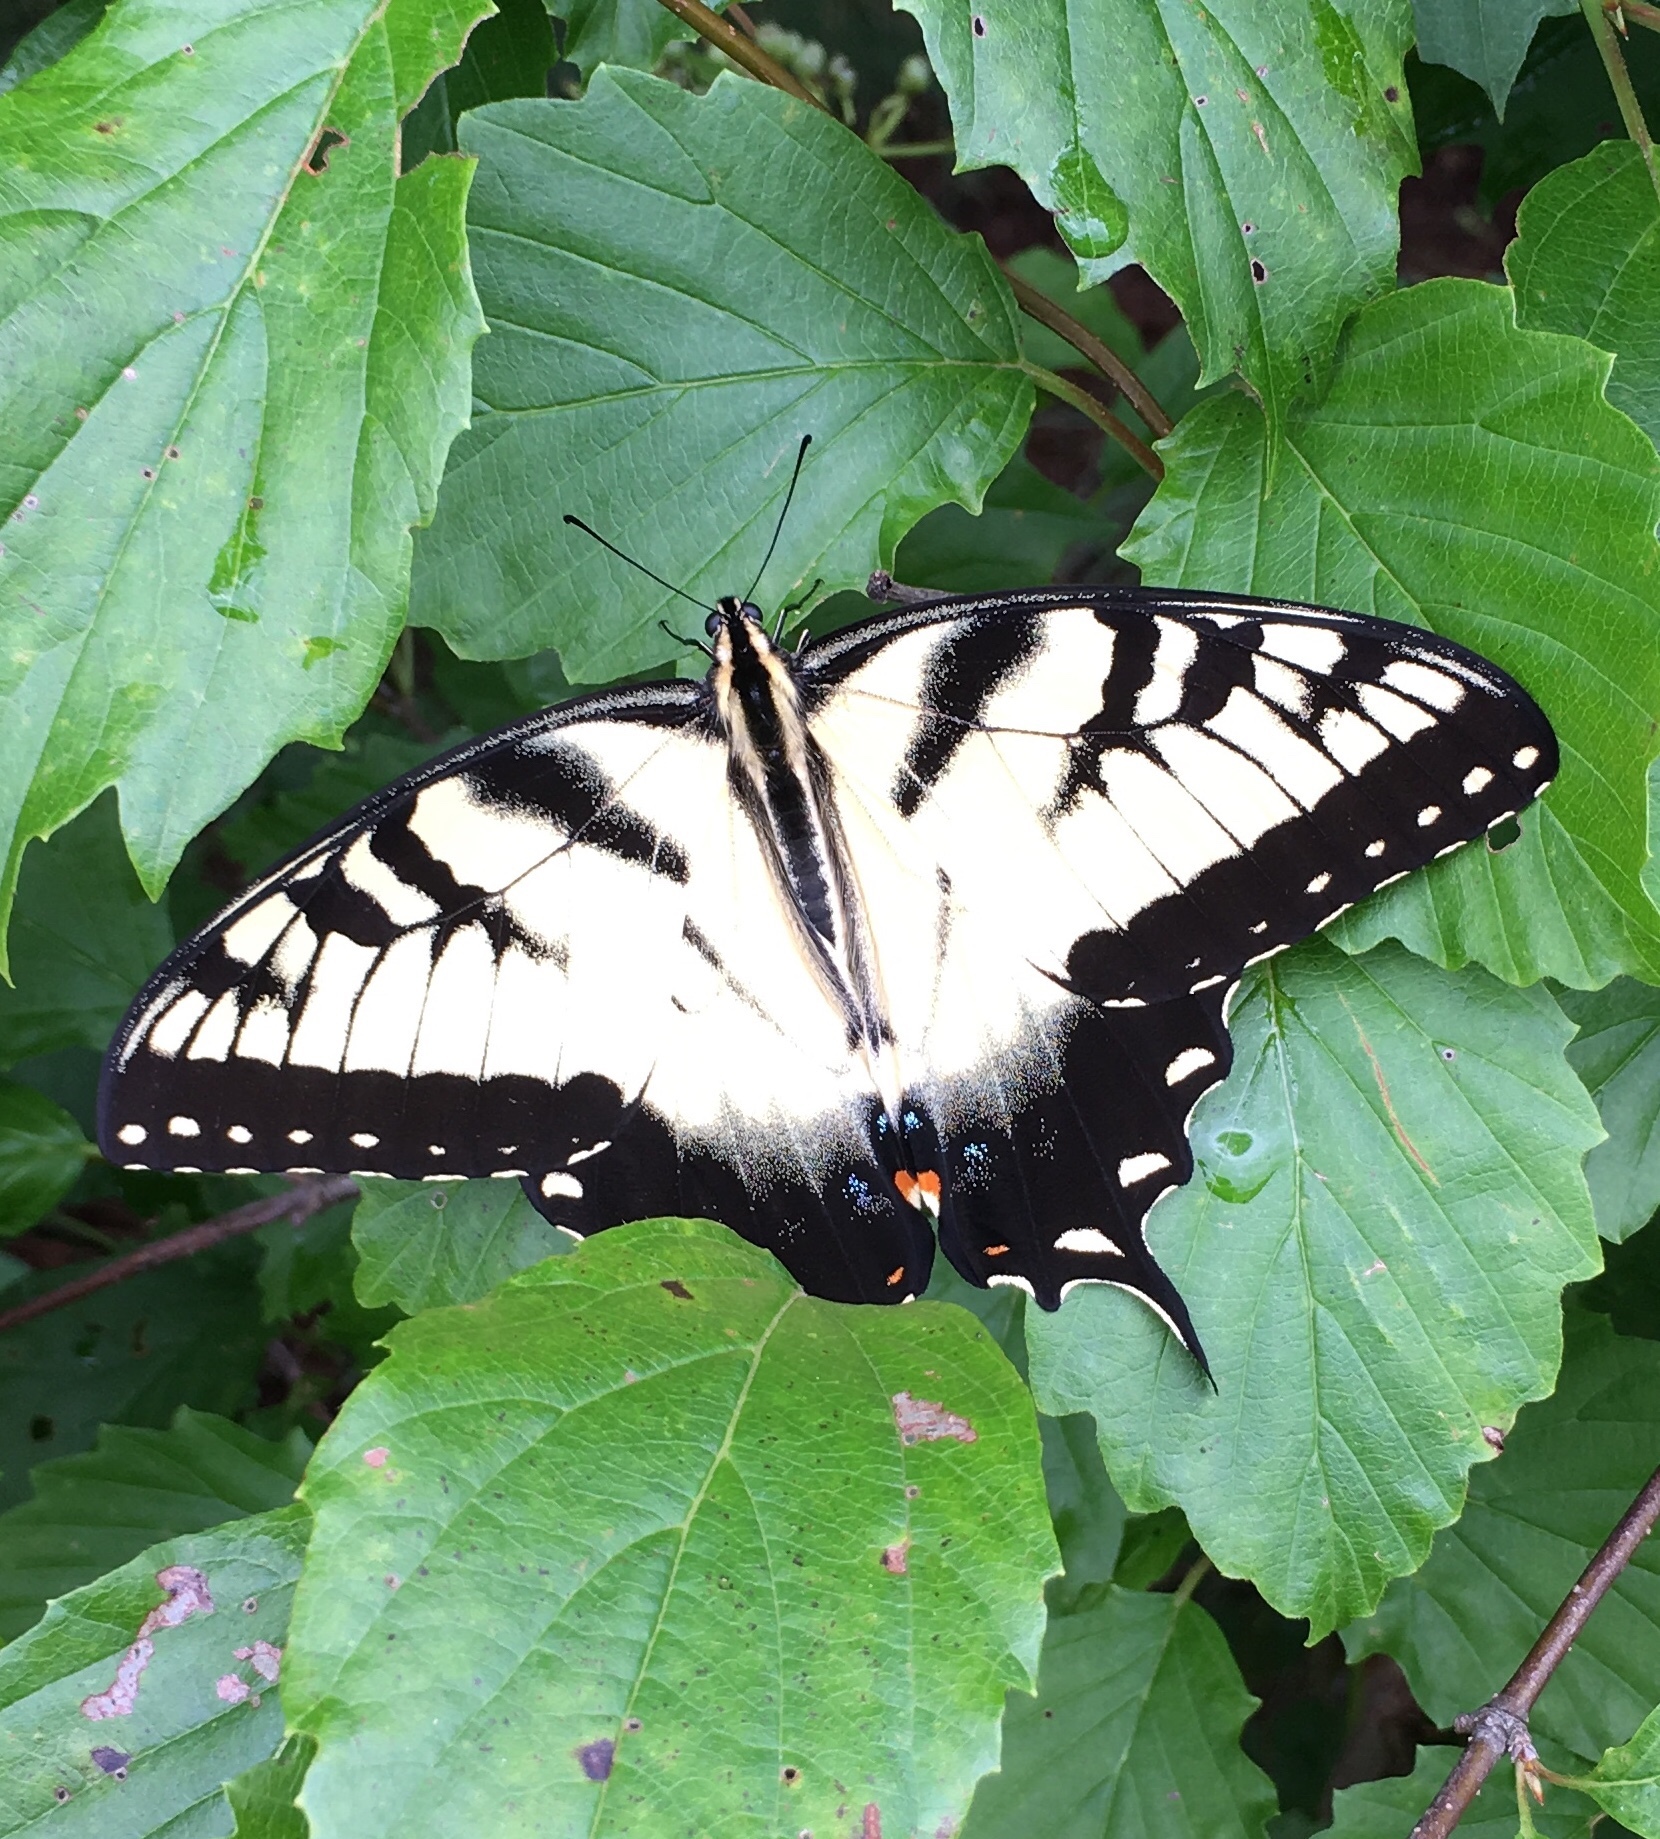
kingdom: Animalia
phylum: Arthropoda
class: Insecta
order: Lepidoptera
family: Papilionidae
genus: Papilio
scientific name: Papilio glaucus
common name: Tiger swallowtail
